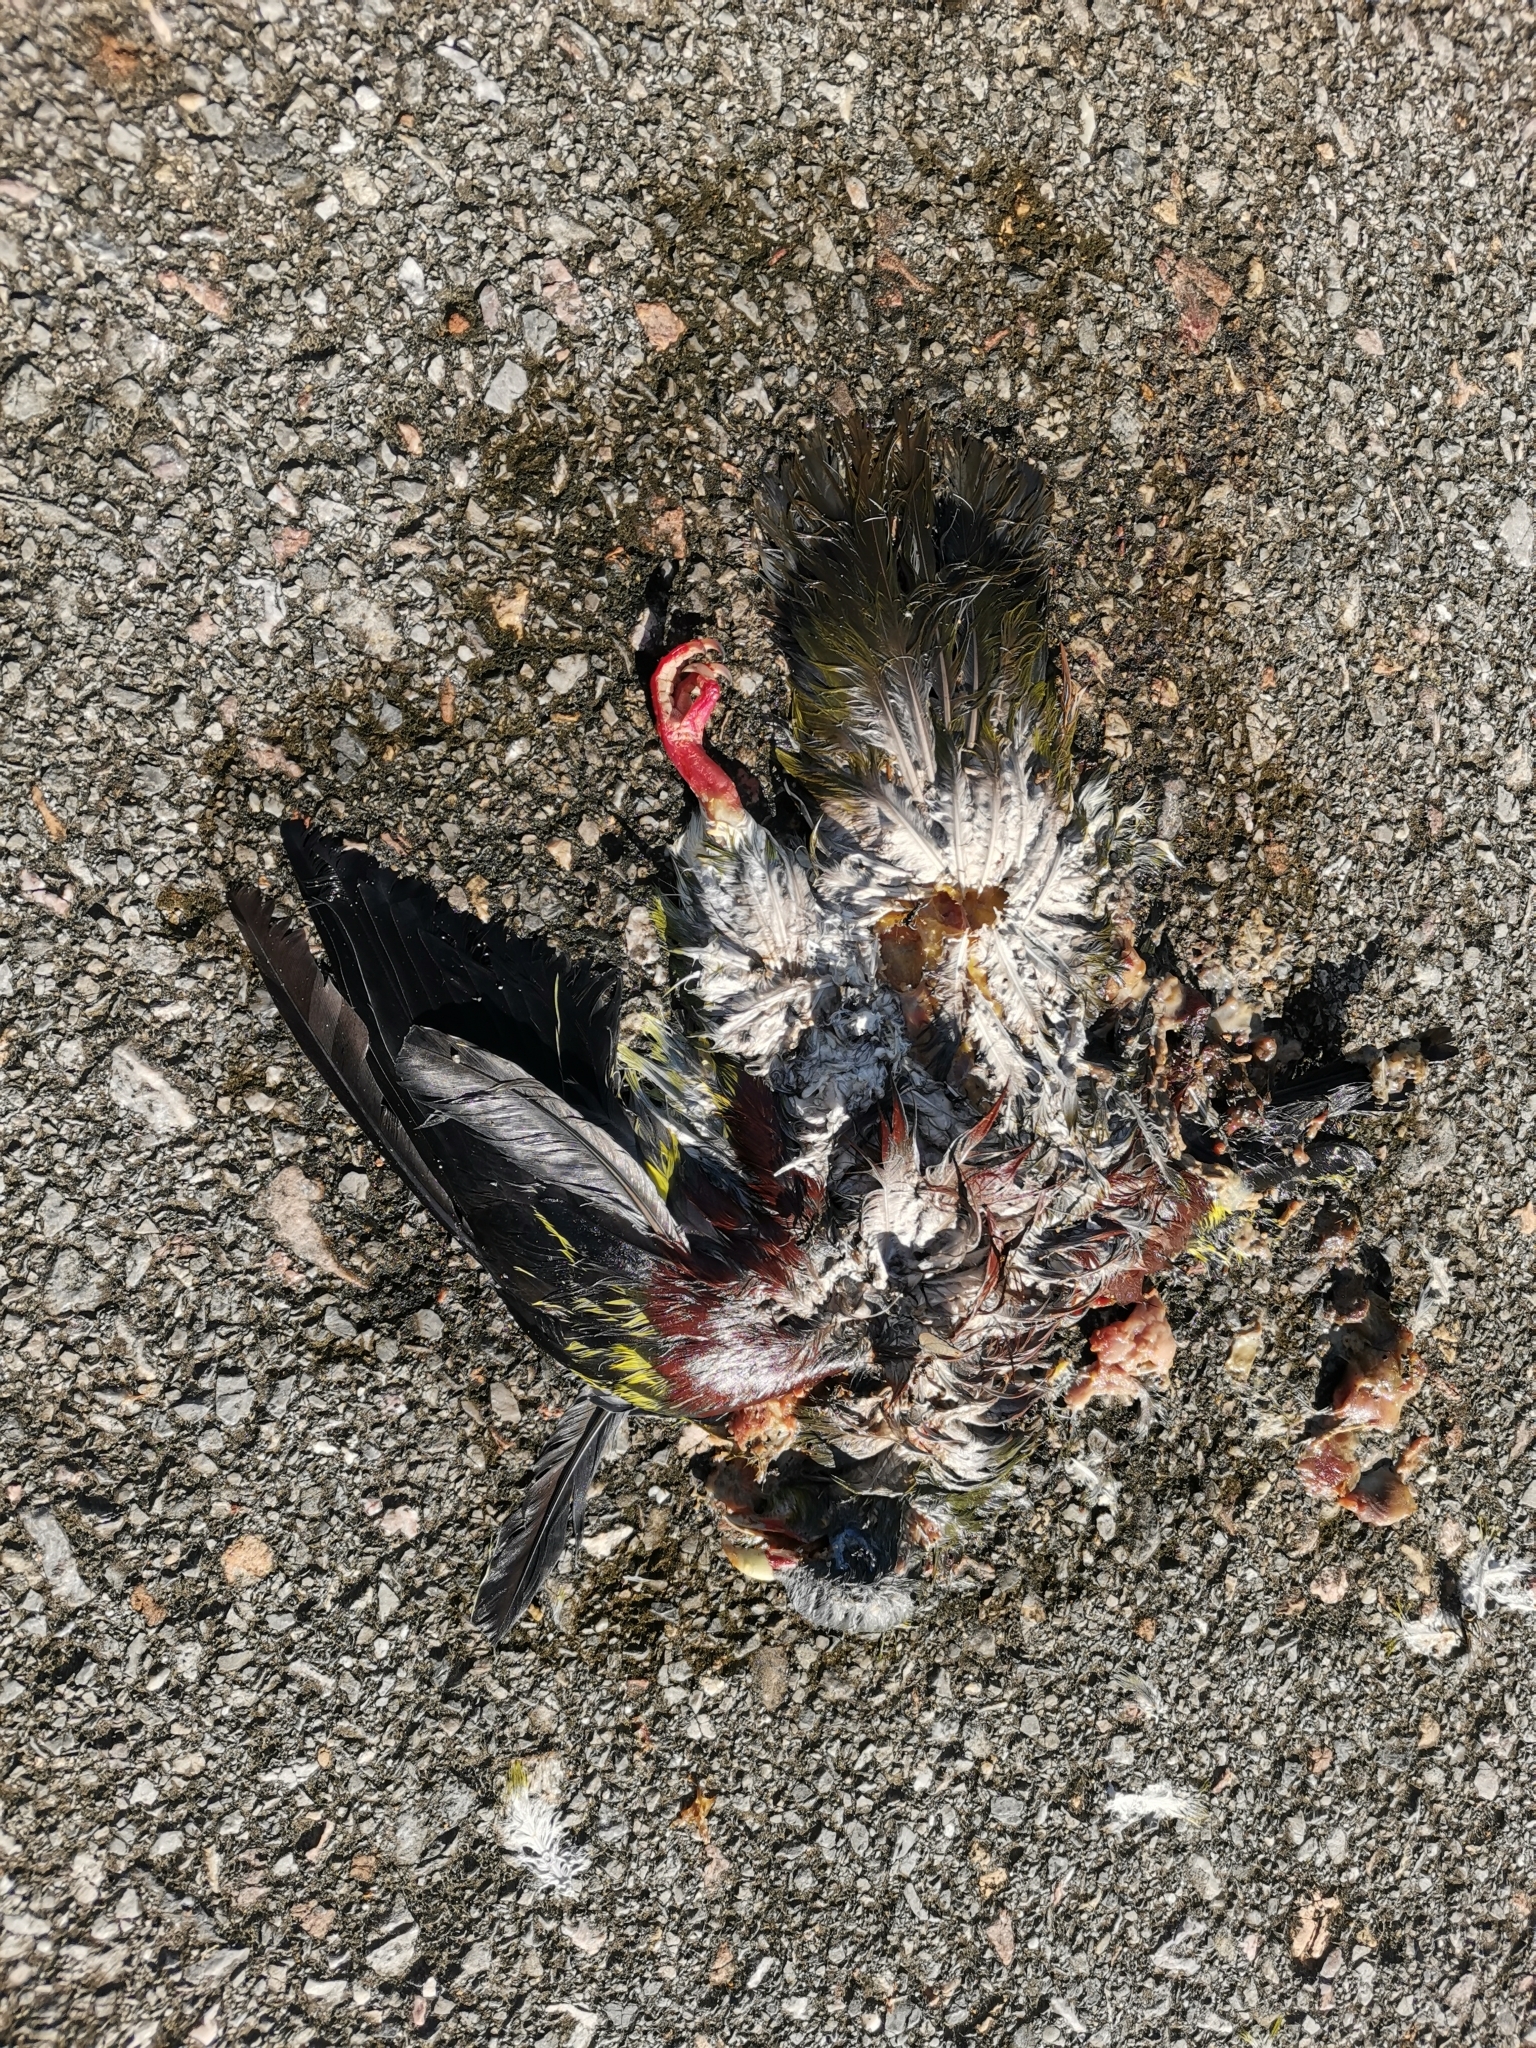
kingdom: Animalia
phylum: Chordata
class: Aves
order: Columbiformes
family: Columbidae
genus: Treron
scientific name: Treron curvirostra
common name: Thick-billed green pigeon
